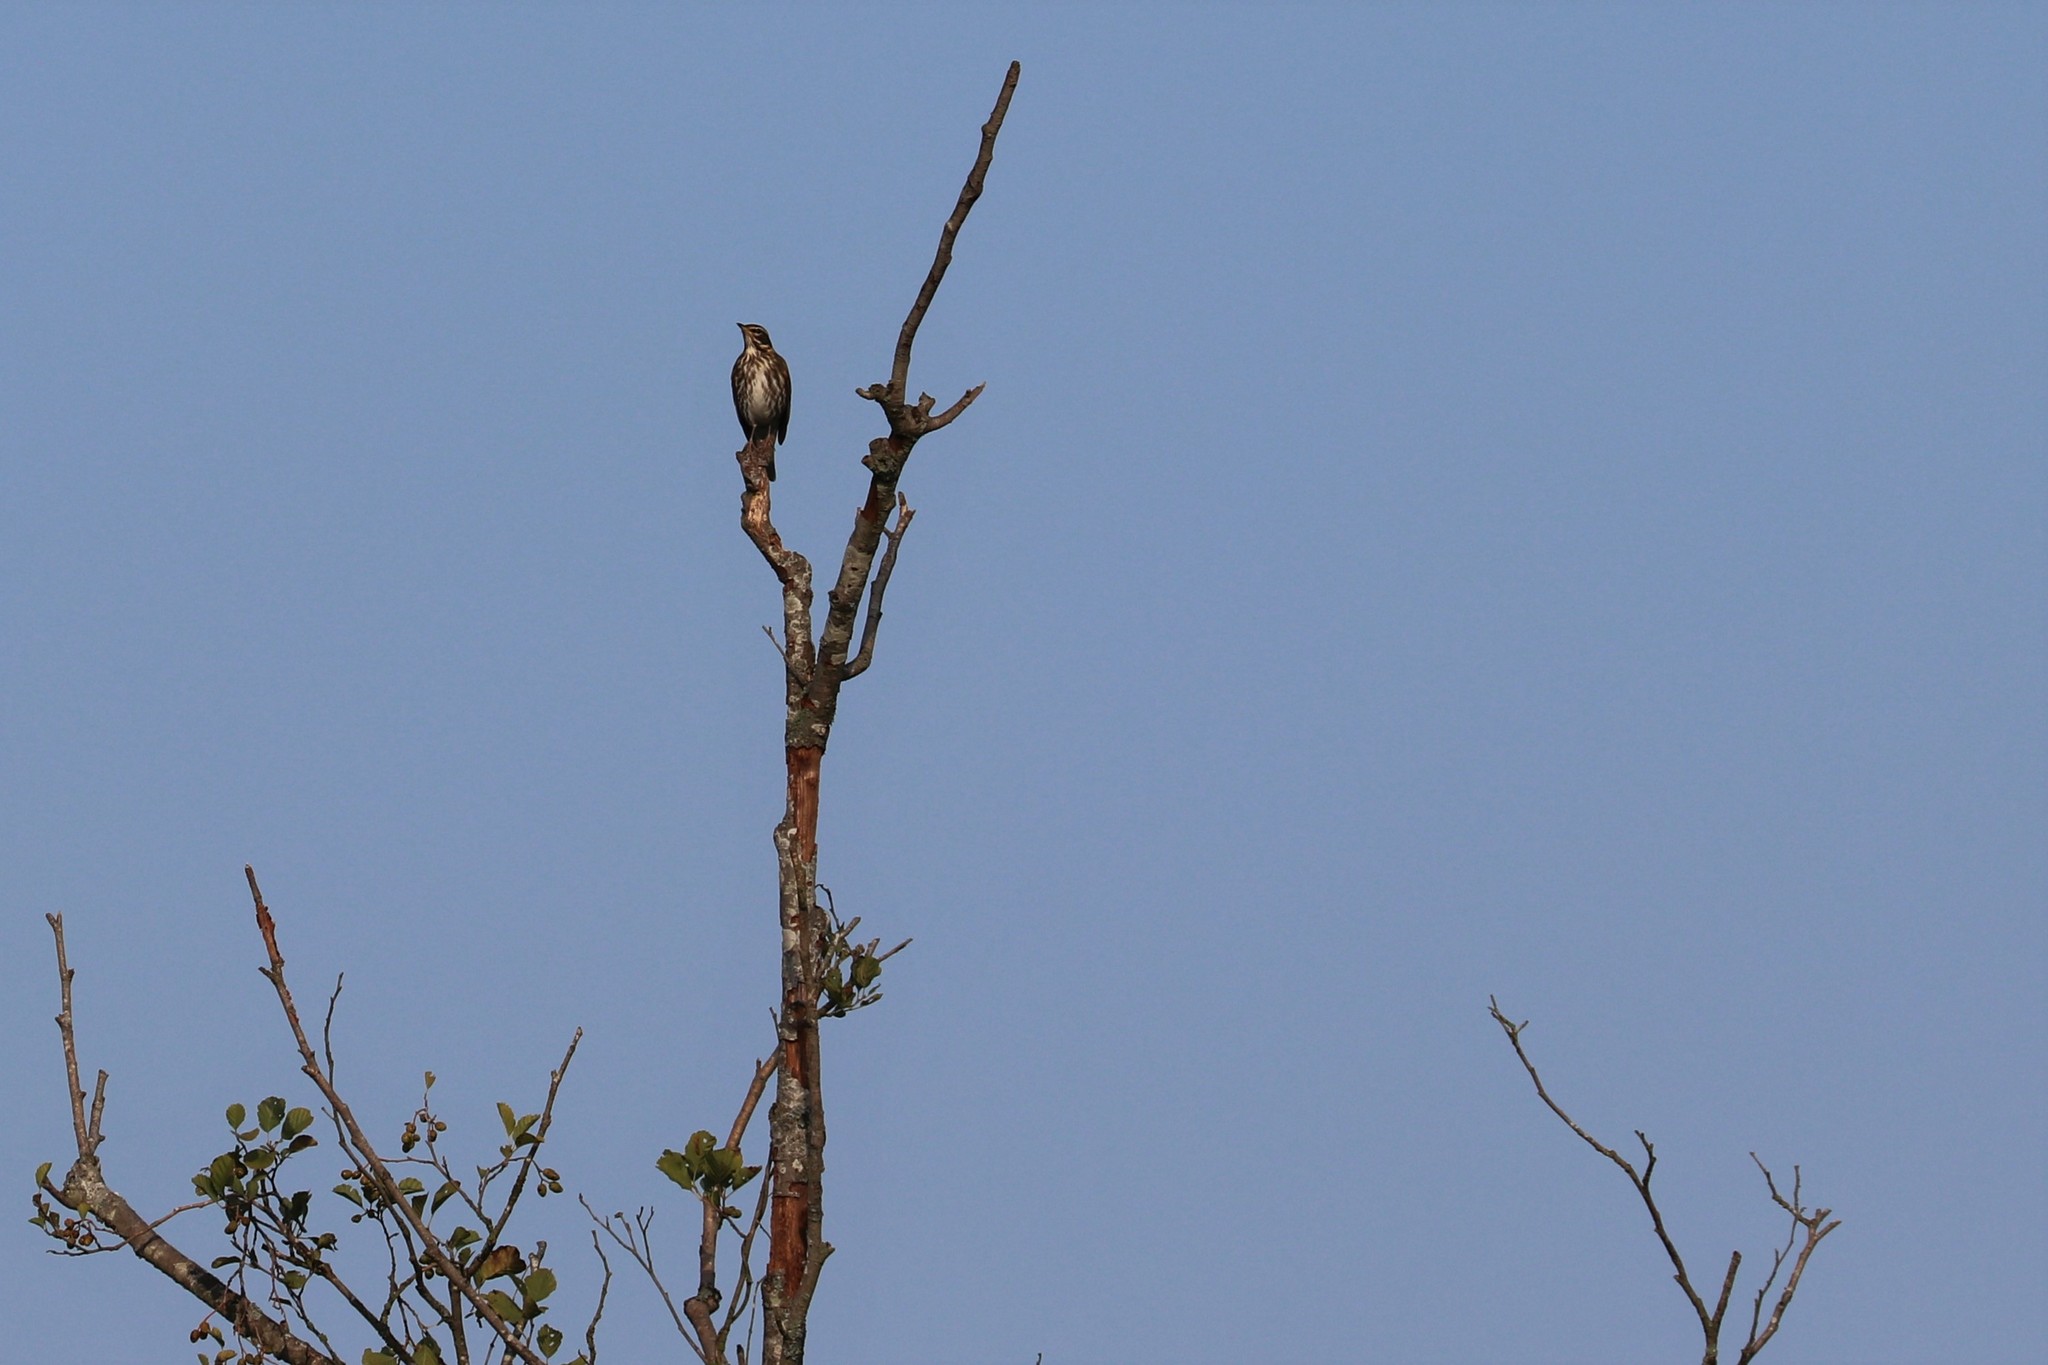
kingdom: Animalia
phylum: Chordata
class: Aves
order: Passeriformes
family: Turdidae
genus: Turdus
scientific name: Turdus iliacus
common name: Redwing
